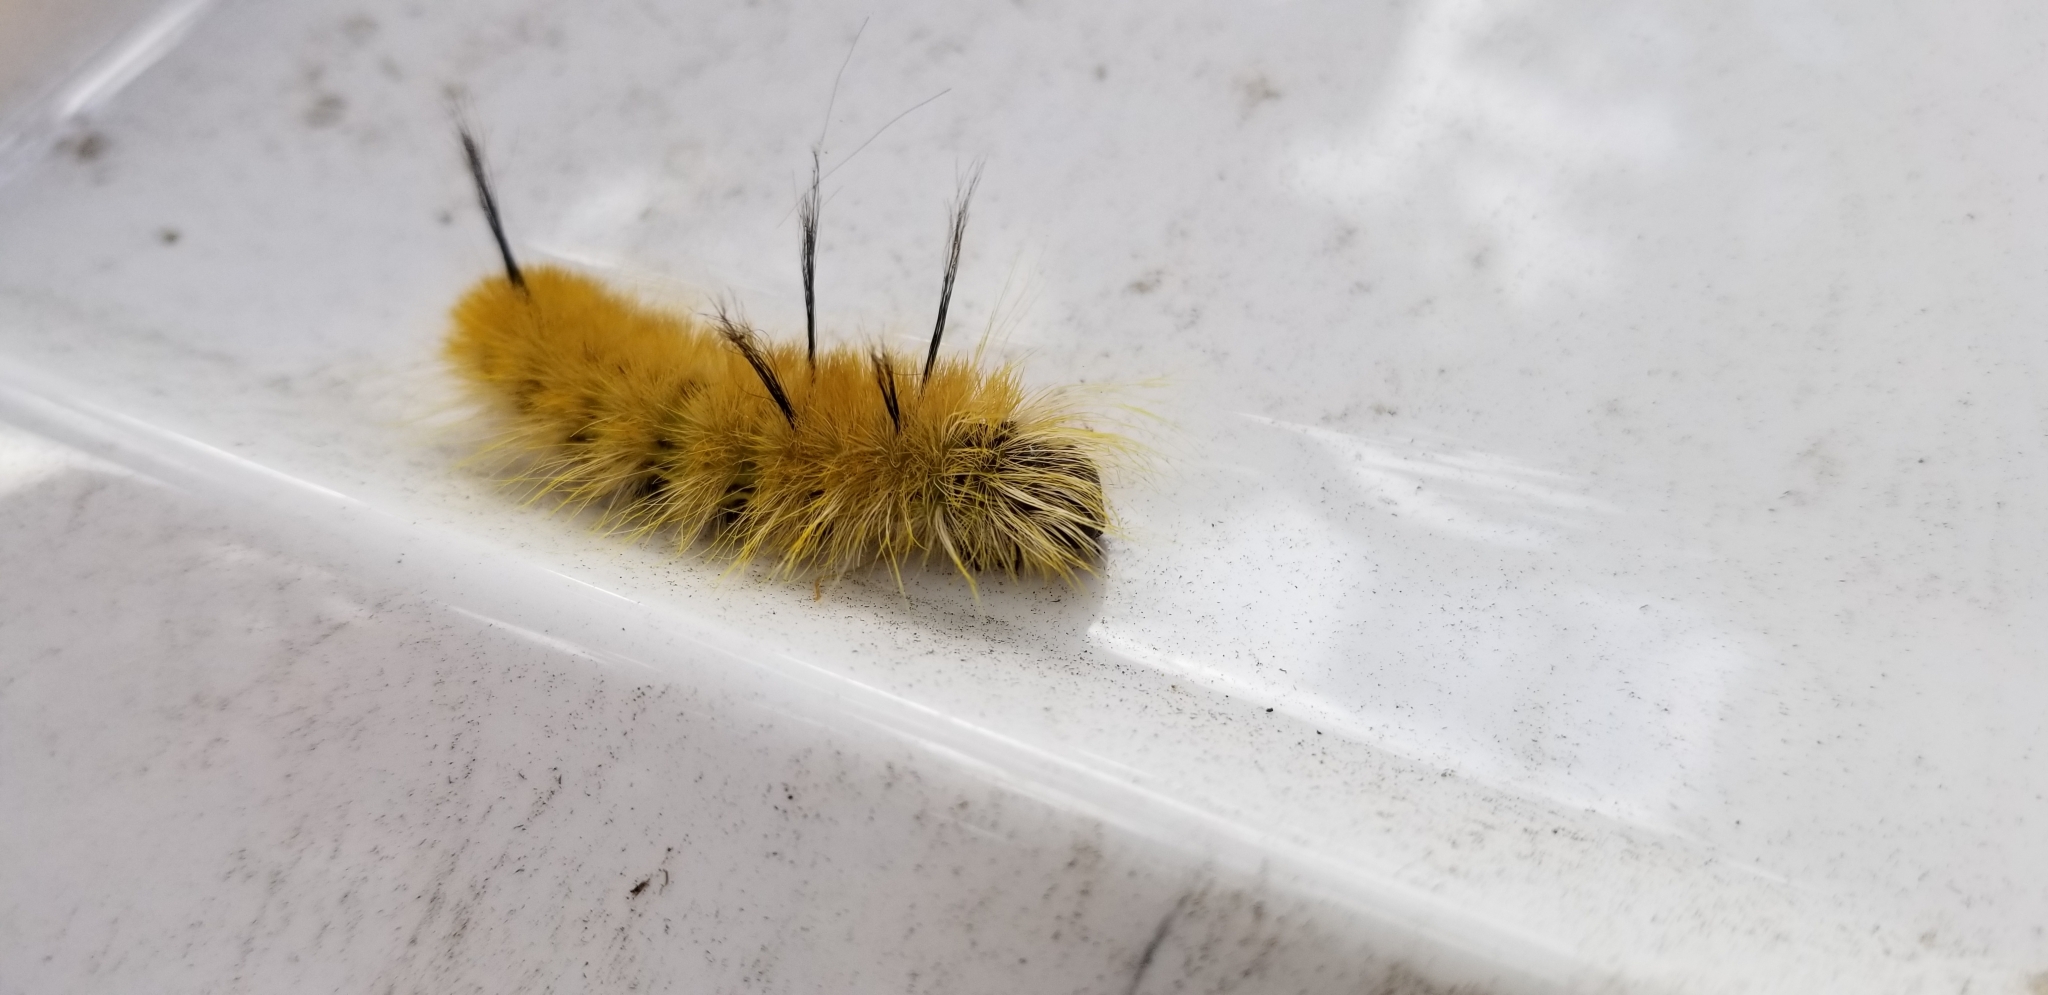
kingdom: Animalia
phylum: Arthropoda
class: Insecta
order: Lepidoptera
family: Noctuidae
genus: Acronicta
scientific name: Acronicta americana
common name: American dagger
